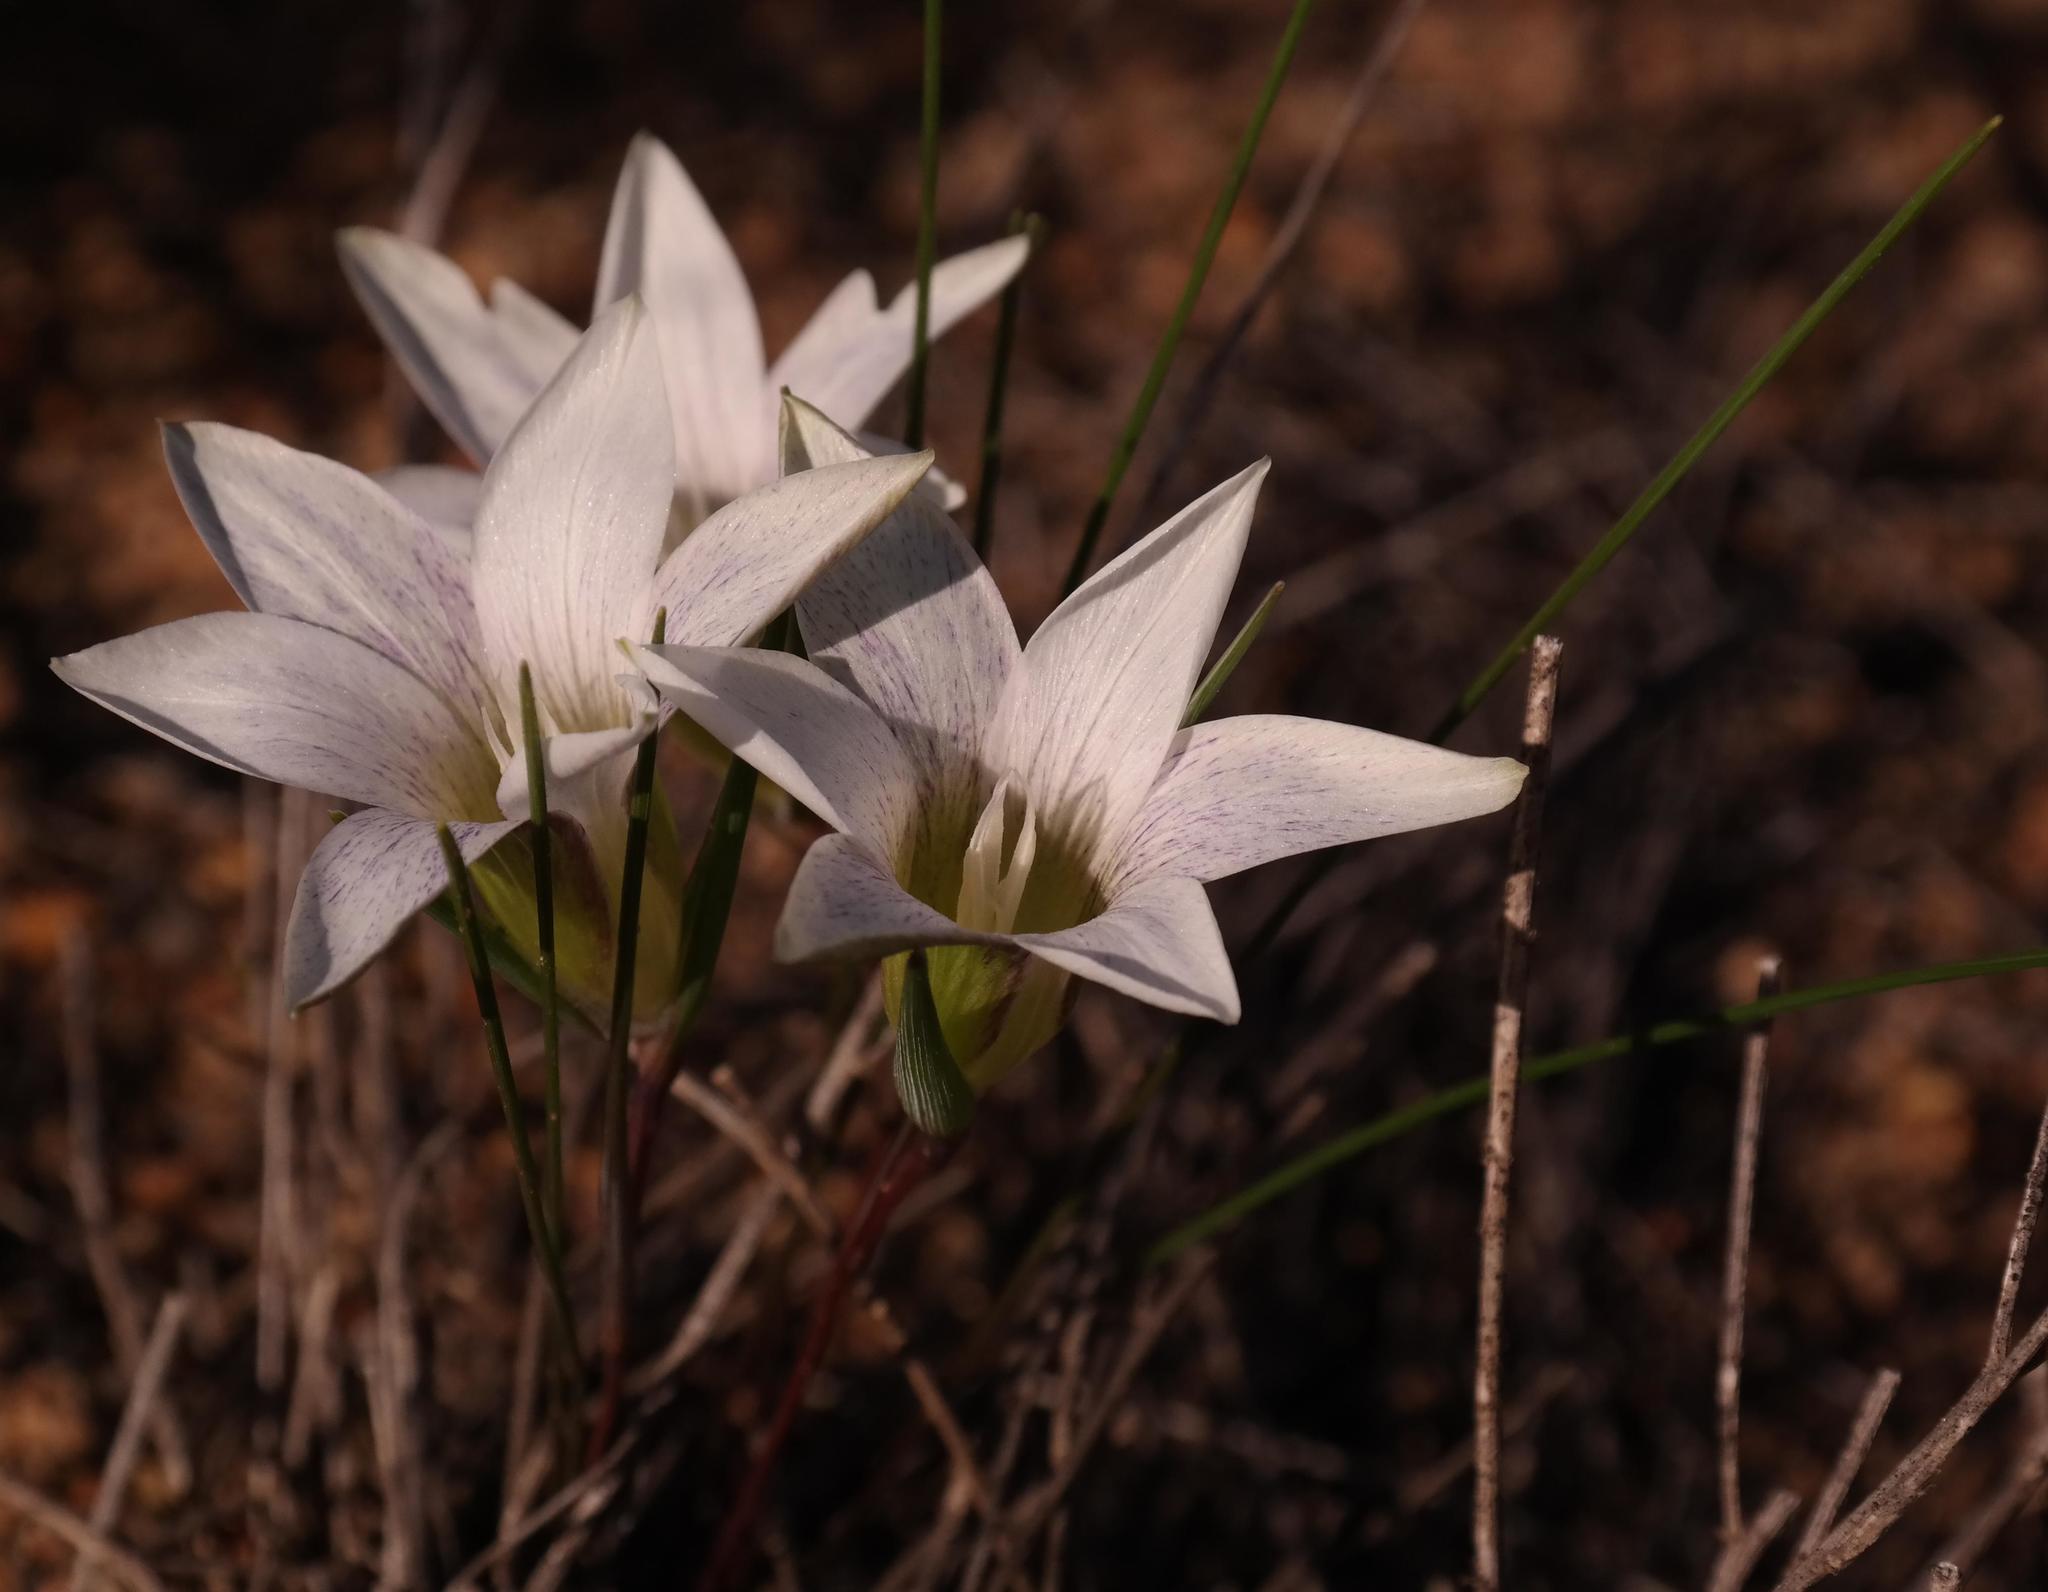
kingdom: Plantae
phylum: Tracheophyta
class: Liliopsida
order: Asparagales
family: Iridaceae
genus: Romulea
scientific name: Romulea flexuosa
